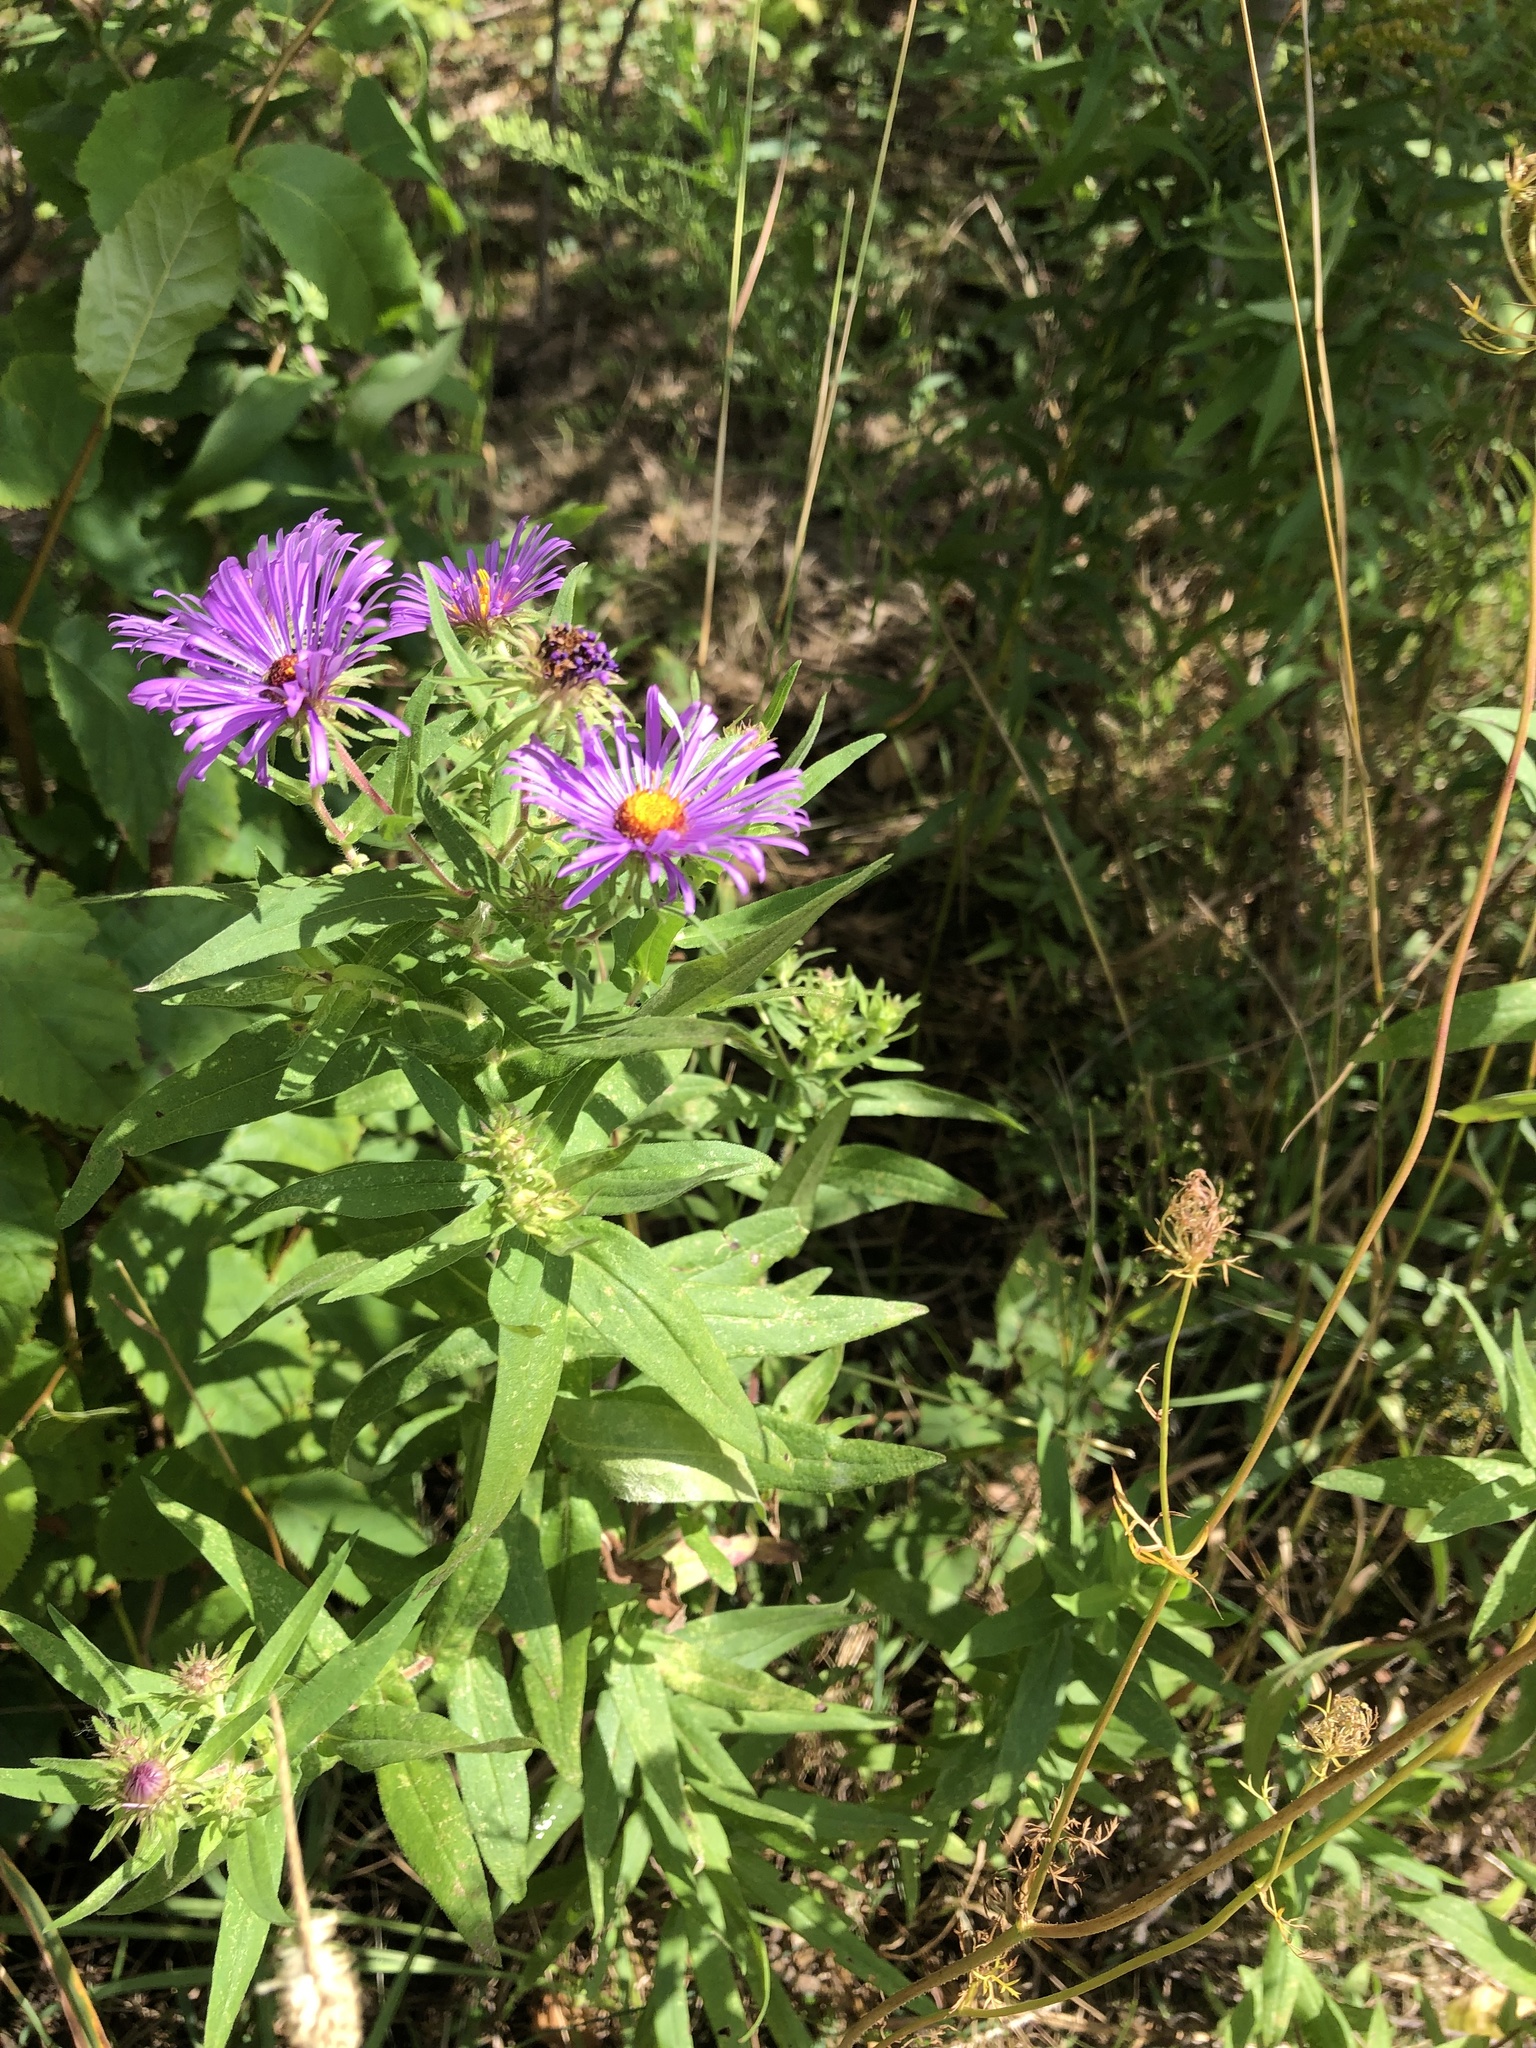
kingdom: Plantae
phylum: Tracheophyta
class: Magnoliopsida
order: Asterales
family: Asteraceae
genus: Symphyotrichum
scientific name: Symphyotrichum novae-angliae
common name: Michaelmas daisy
